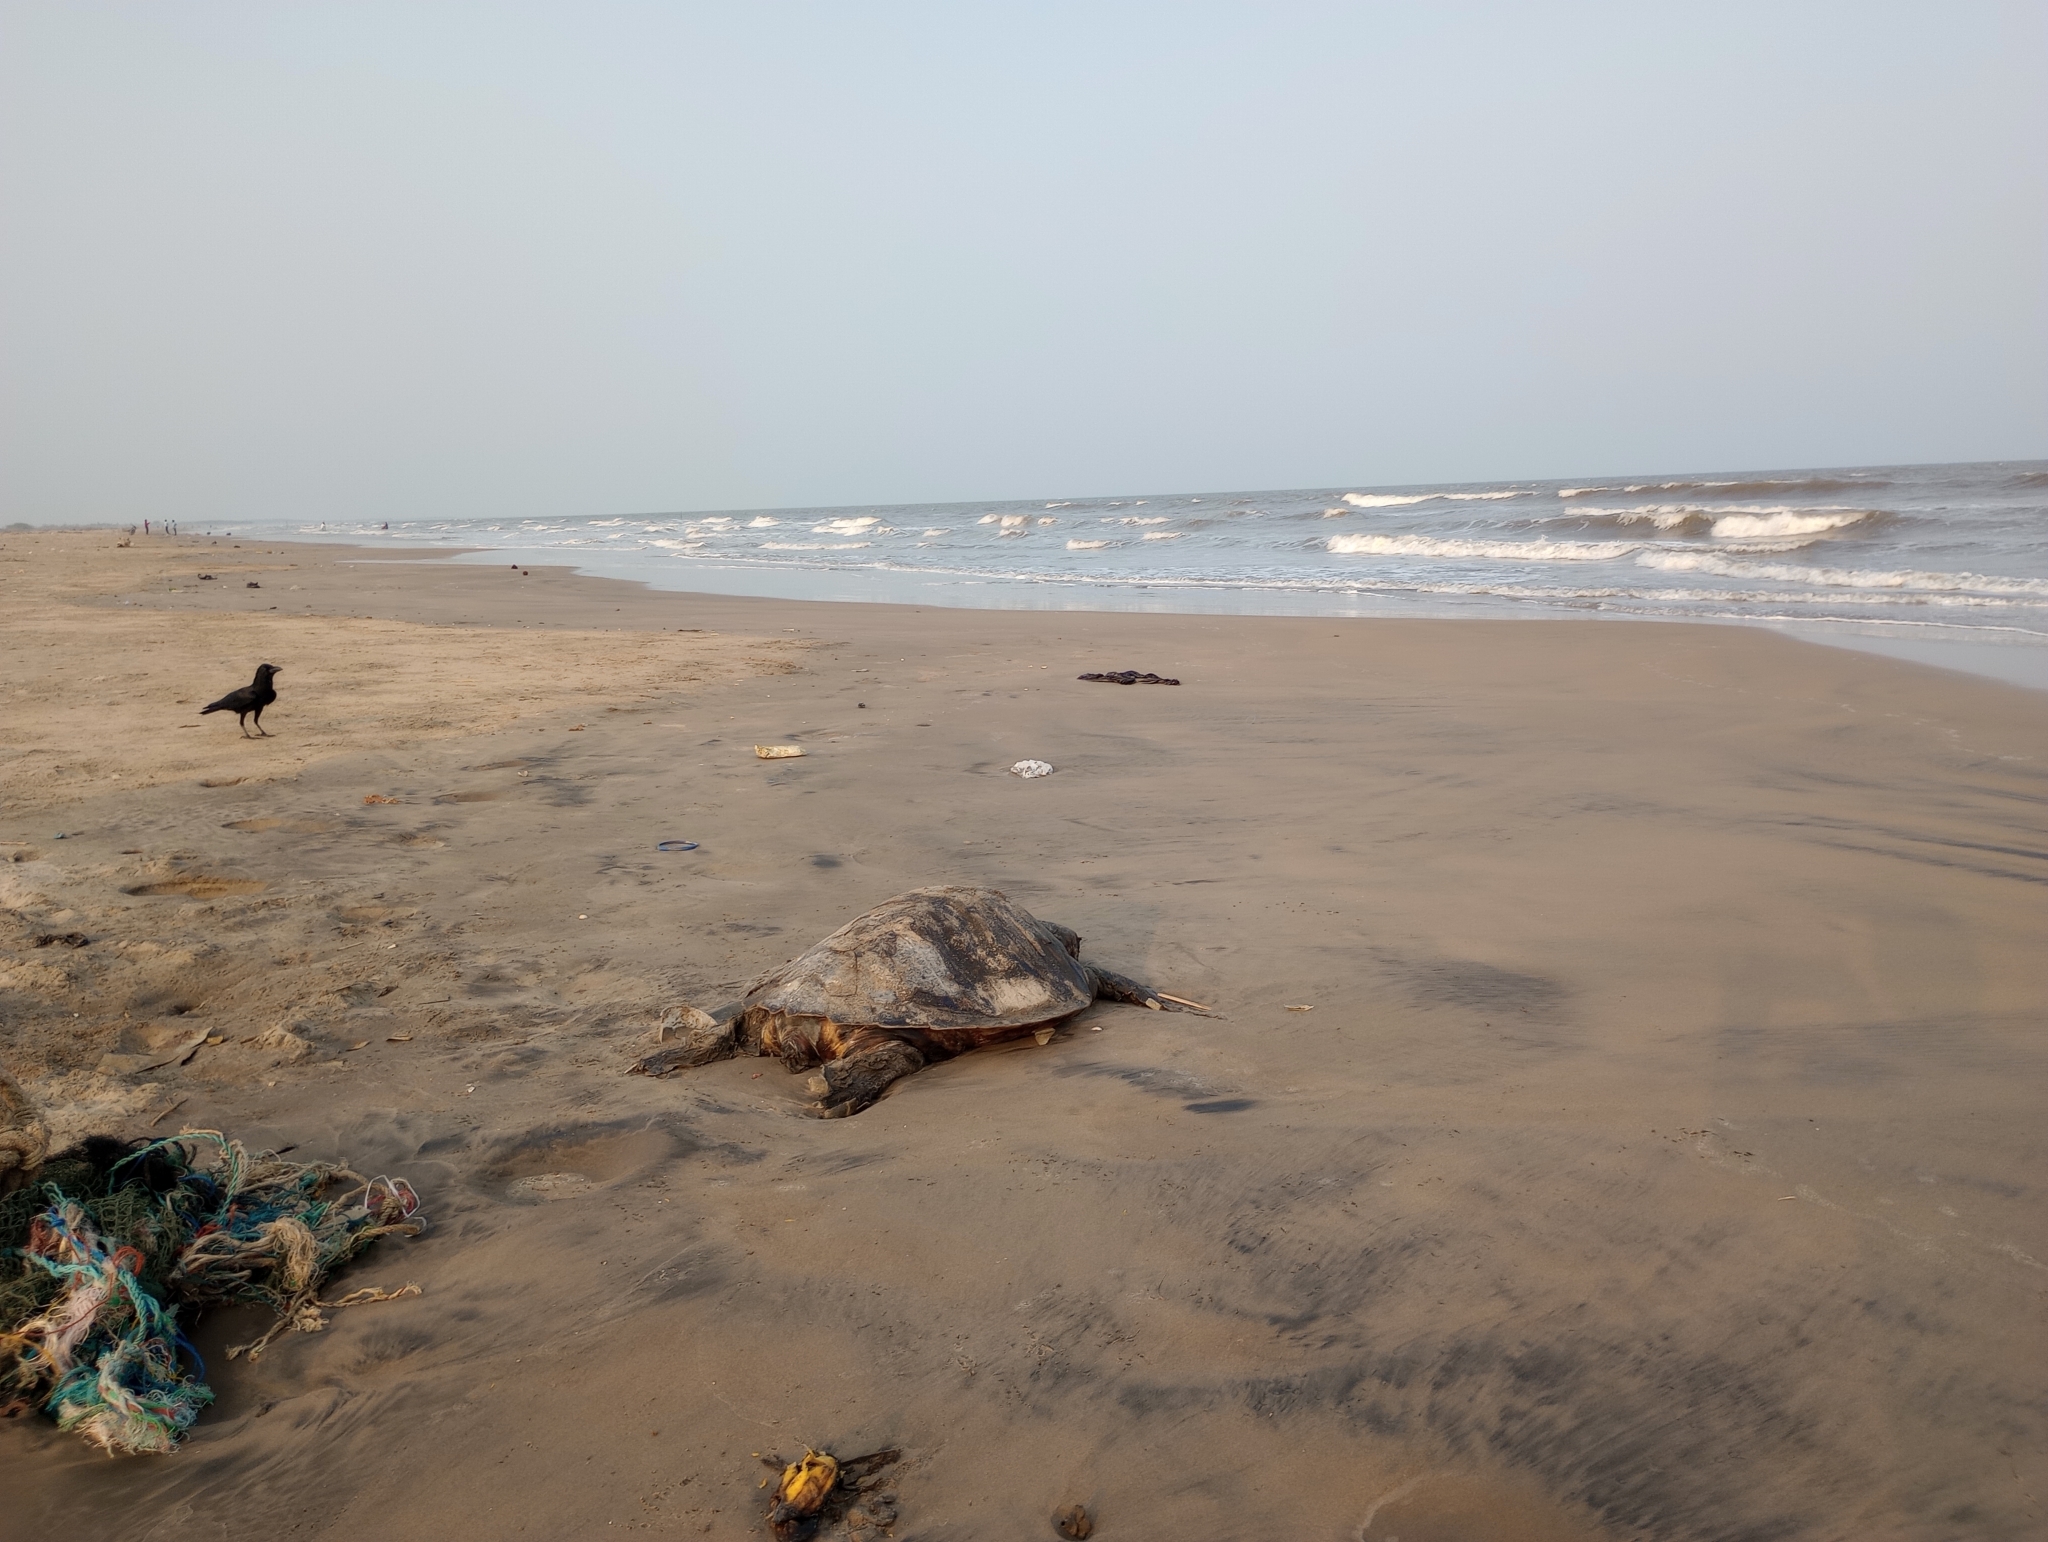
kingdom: Animalia
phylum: Chordata
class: Testudines
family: Cheloniidae
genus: Lepidochelys
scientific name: Lepidochelys olivacea
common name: Olive ridley
